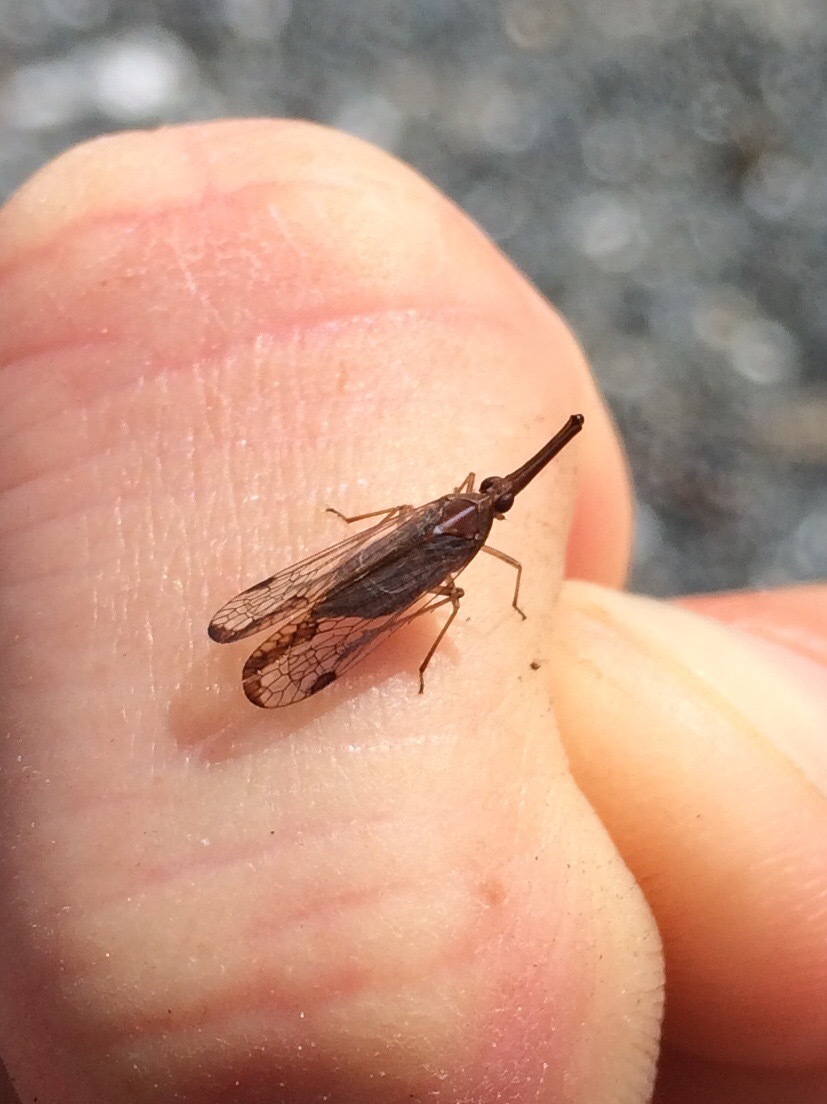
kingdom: Animalia
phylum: Arthropoda
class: Insecta
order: Hemiptera
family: Dictyopharidae
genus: Thanatodictya
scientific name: Thanatodictya tillyardi
